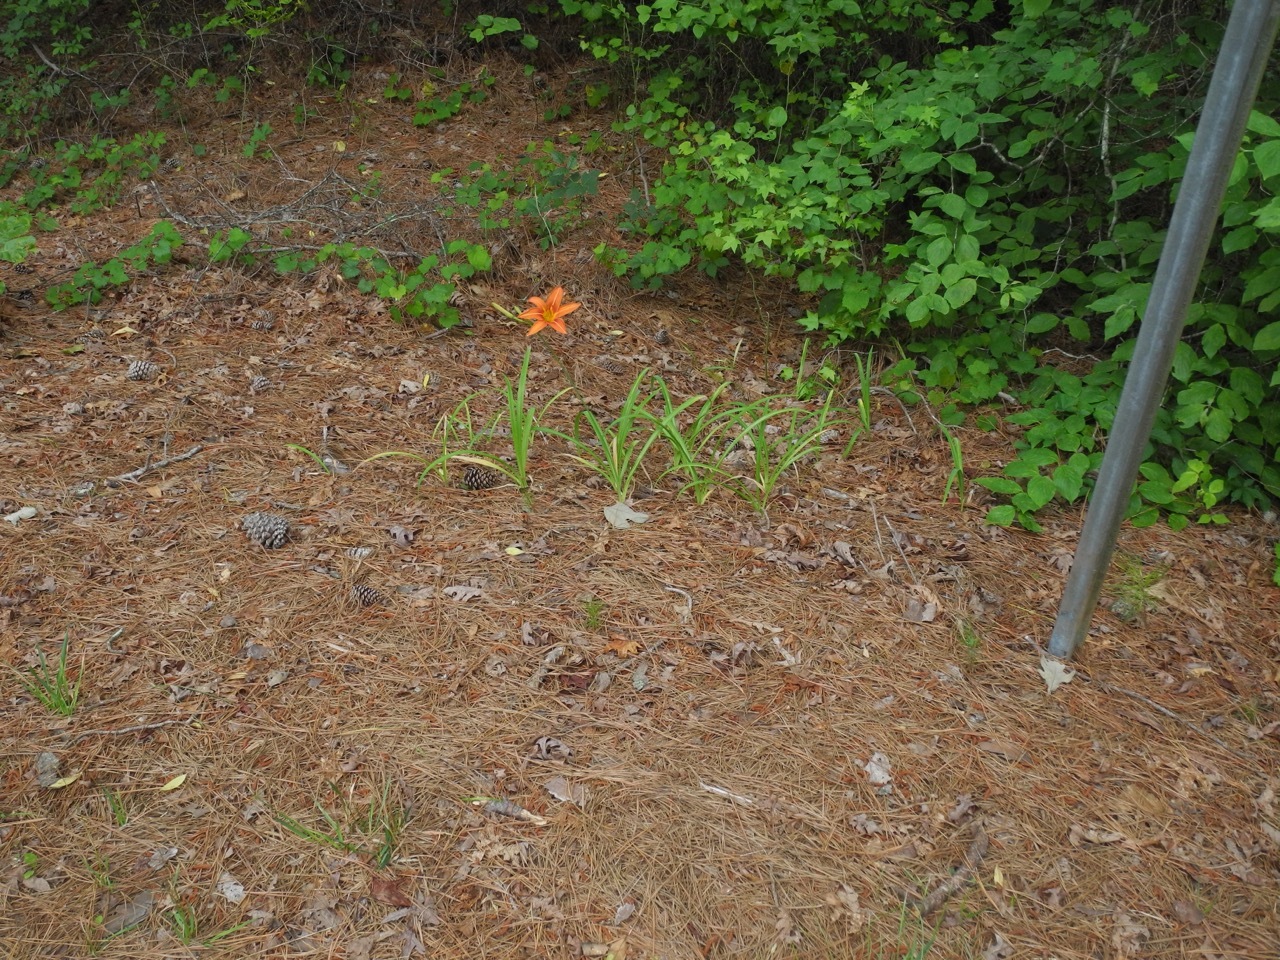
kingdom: Plantae
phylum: Tracheophyta
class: Liliopsida
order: Asparagales
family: Asphodelaceae
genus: Hemerocallis
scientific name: Hemerocallis fulva
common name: Orange day-lily
